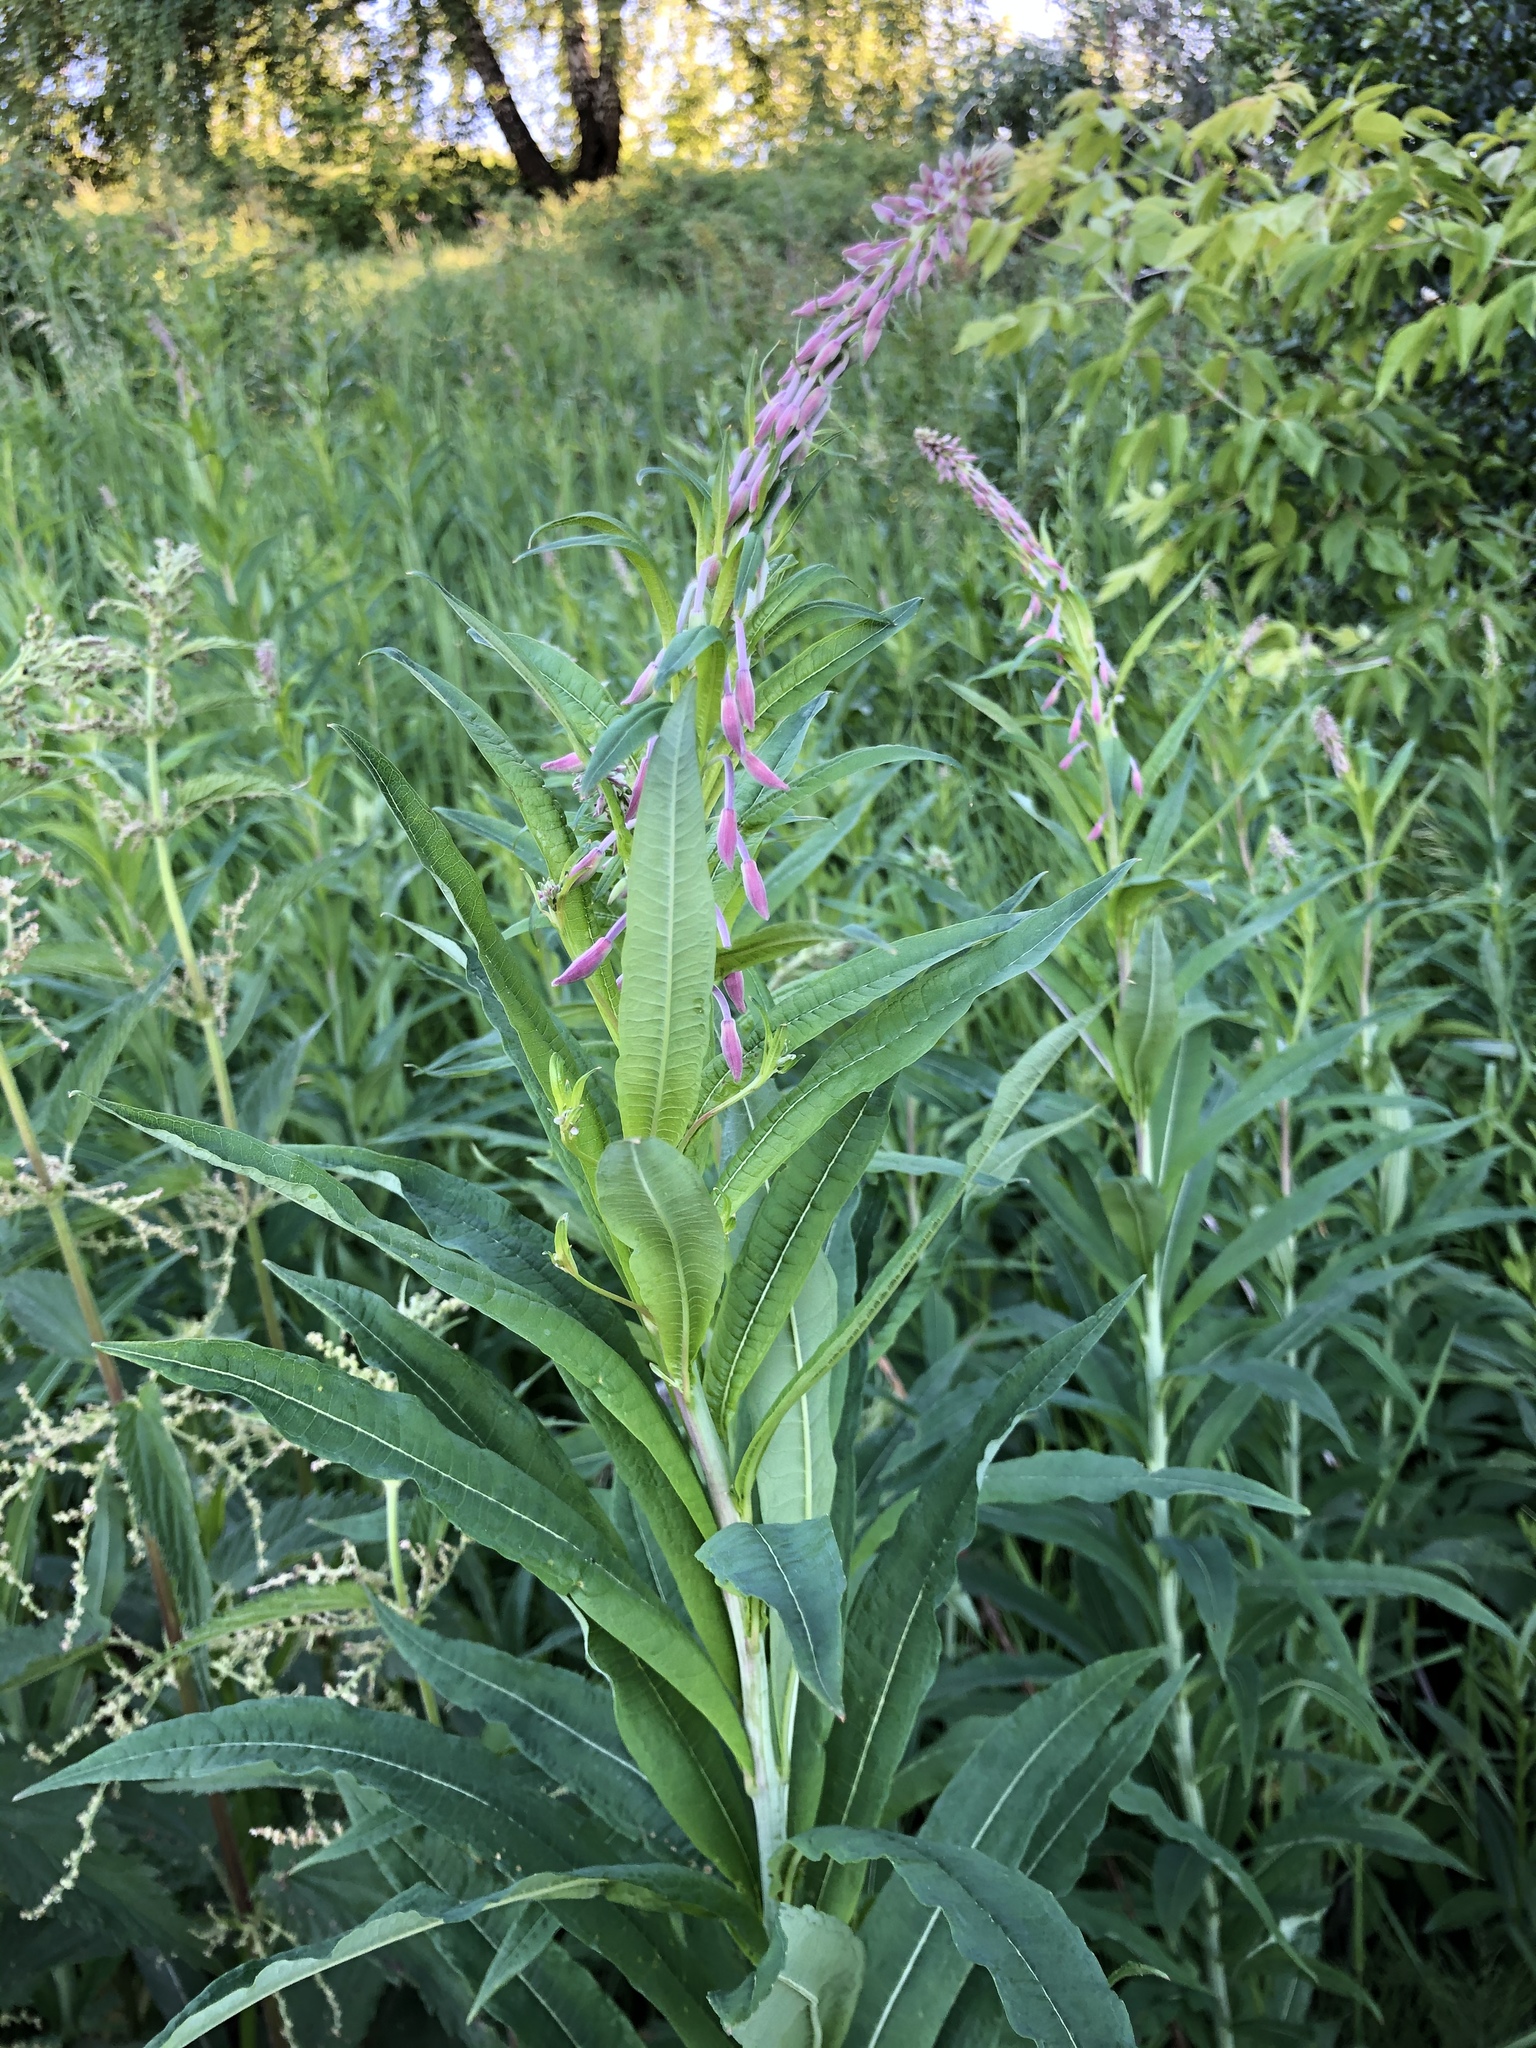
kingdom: Plantae
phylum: Tracheophyta
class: Magnoliopsida
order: Myrtales
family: Onagraceae
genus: Chamaenerion
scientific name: Chamaenerion angustifolium
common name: Fireweed
